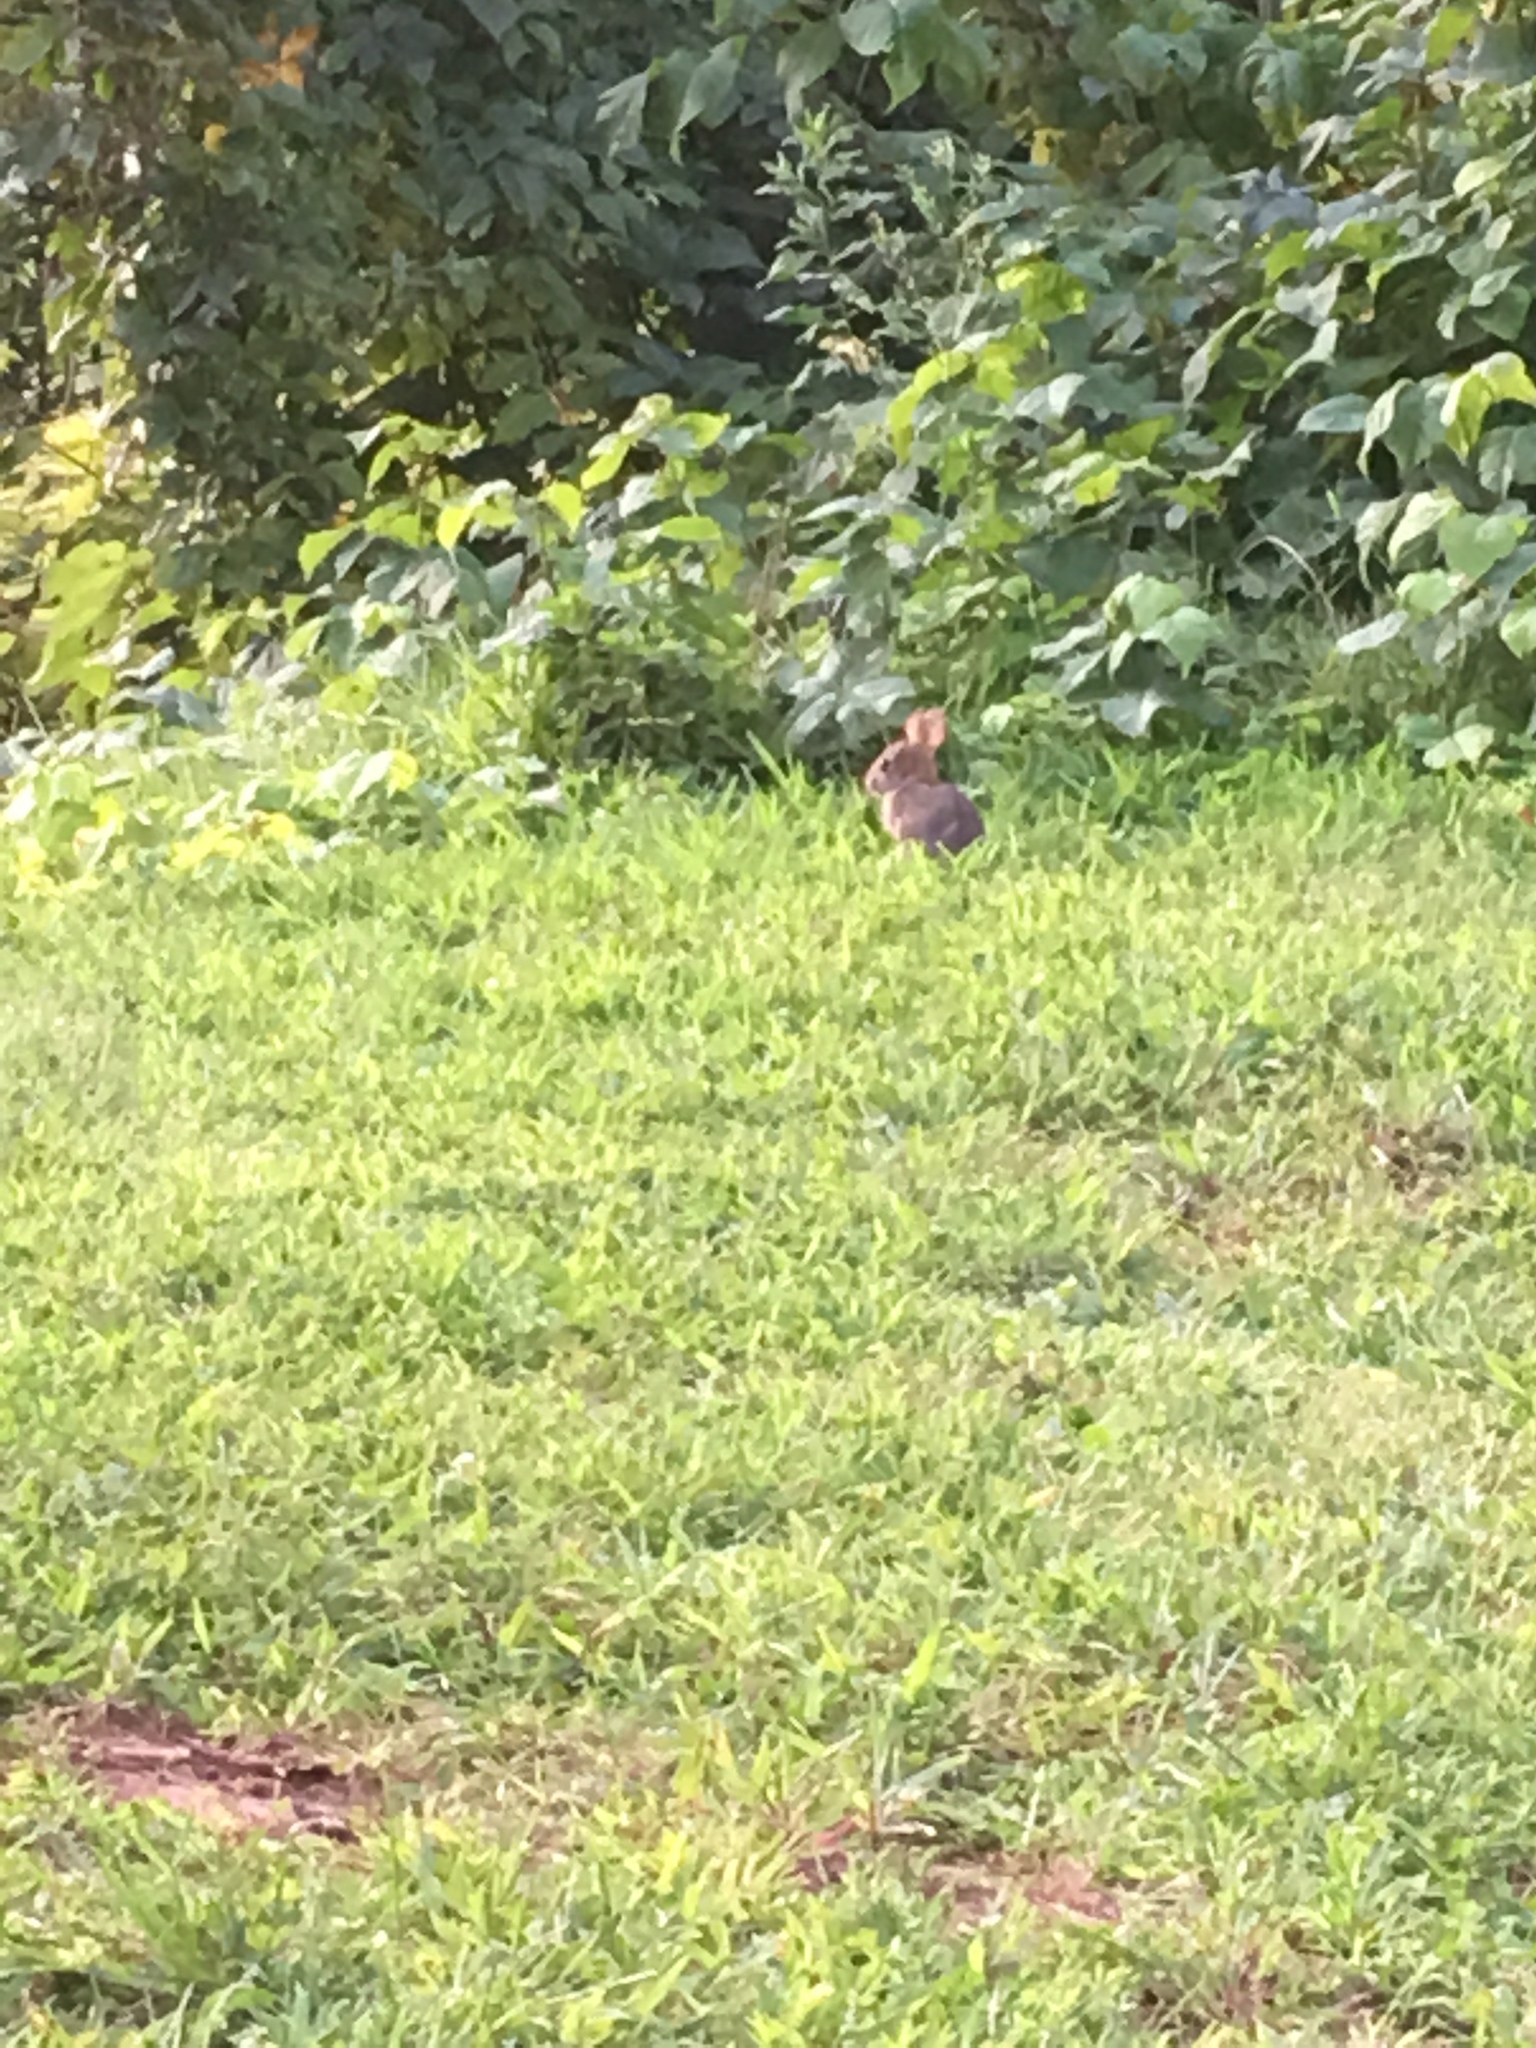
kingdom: Animalia
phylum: Chordata
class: Mammalia
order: Lagomorpha
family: Leporidae
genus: Sylvilagus
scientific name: Sylvilagus floridanus
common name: Eastern cottontail
